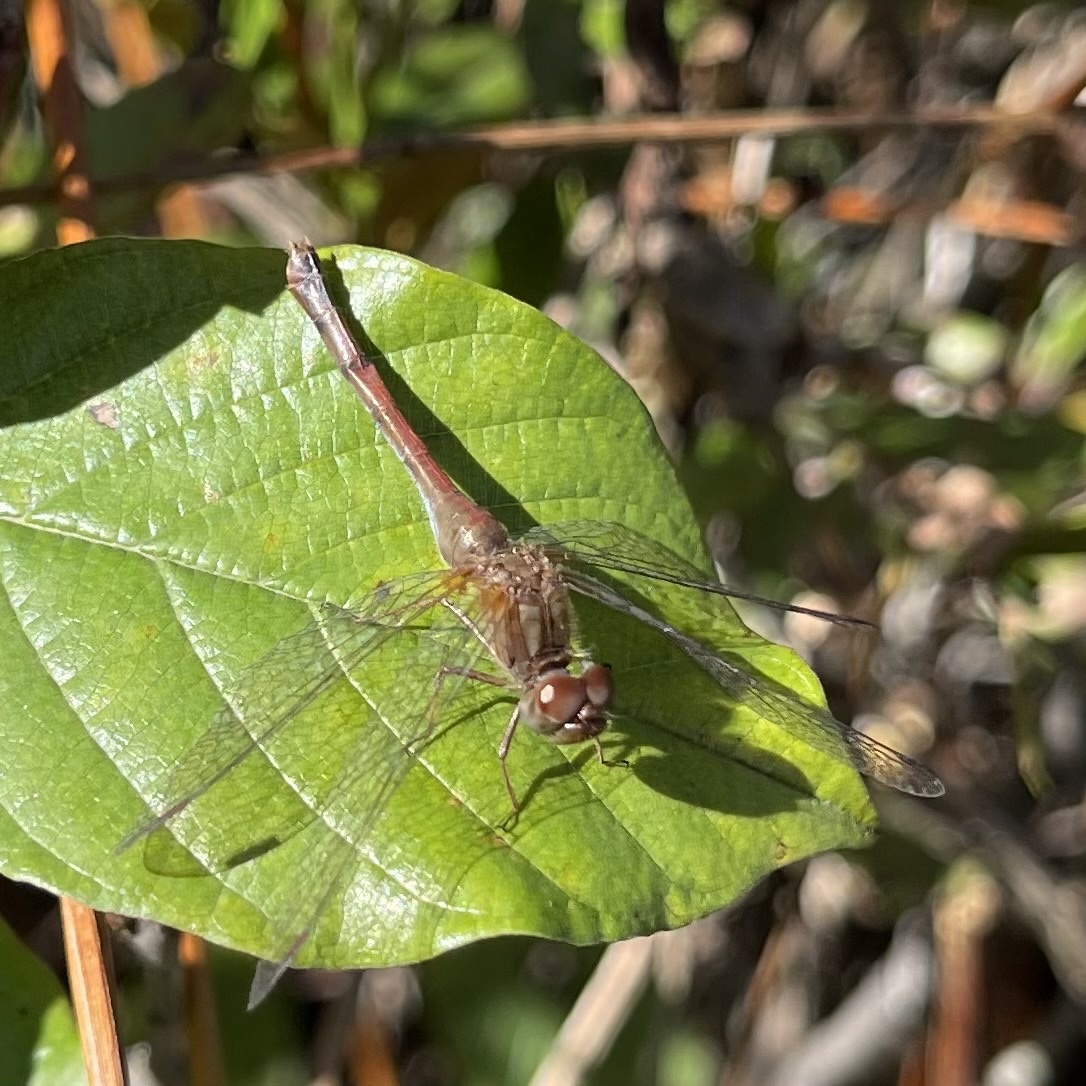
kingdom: Animalia
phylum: Arthropoda
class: Insecta
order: Odonata
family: Libellulidae
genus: Sympetrum
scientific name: Sympetrum vicinum
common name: Autumn meadowhawk
